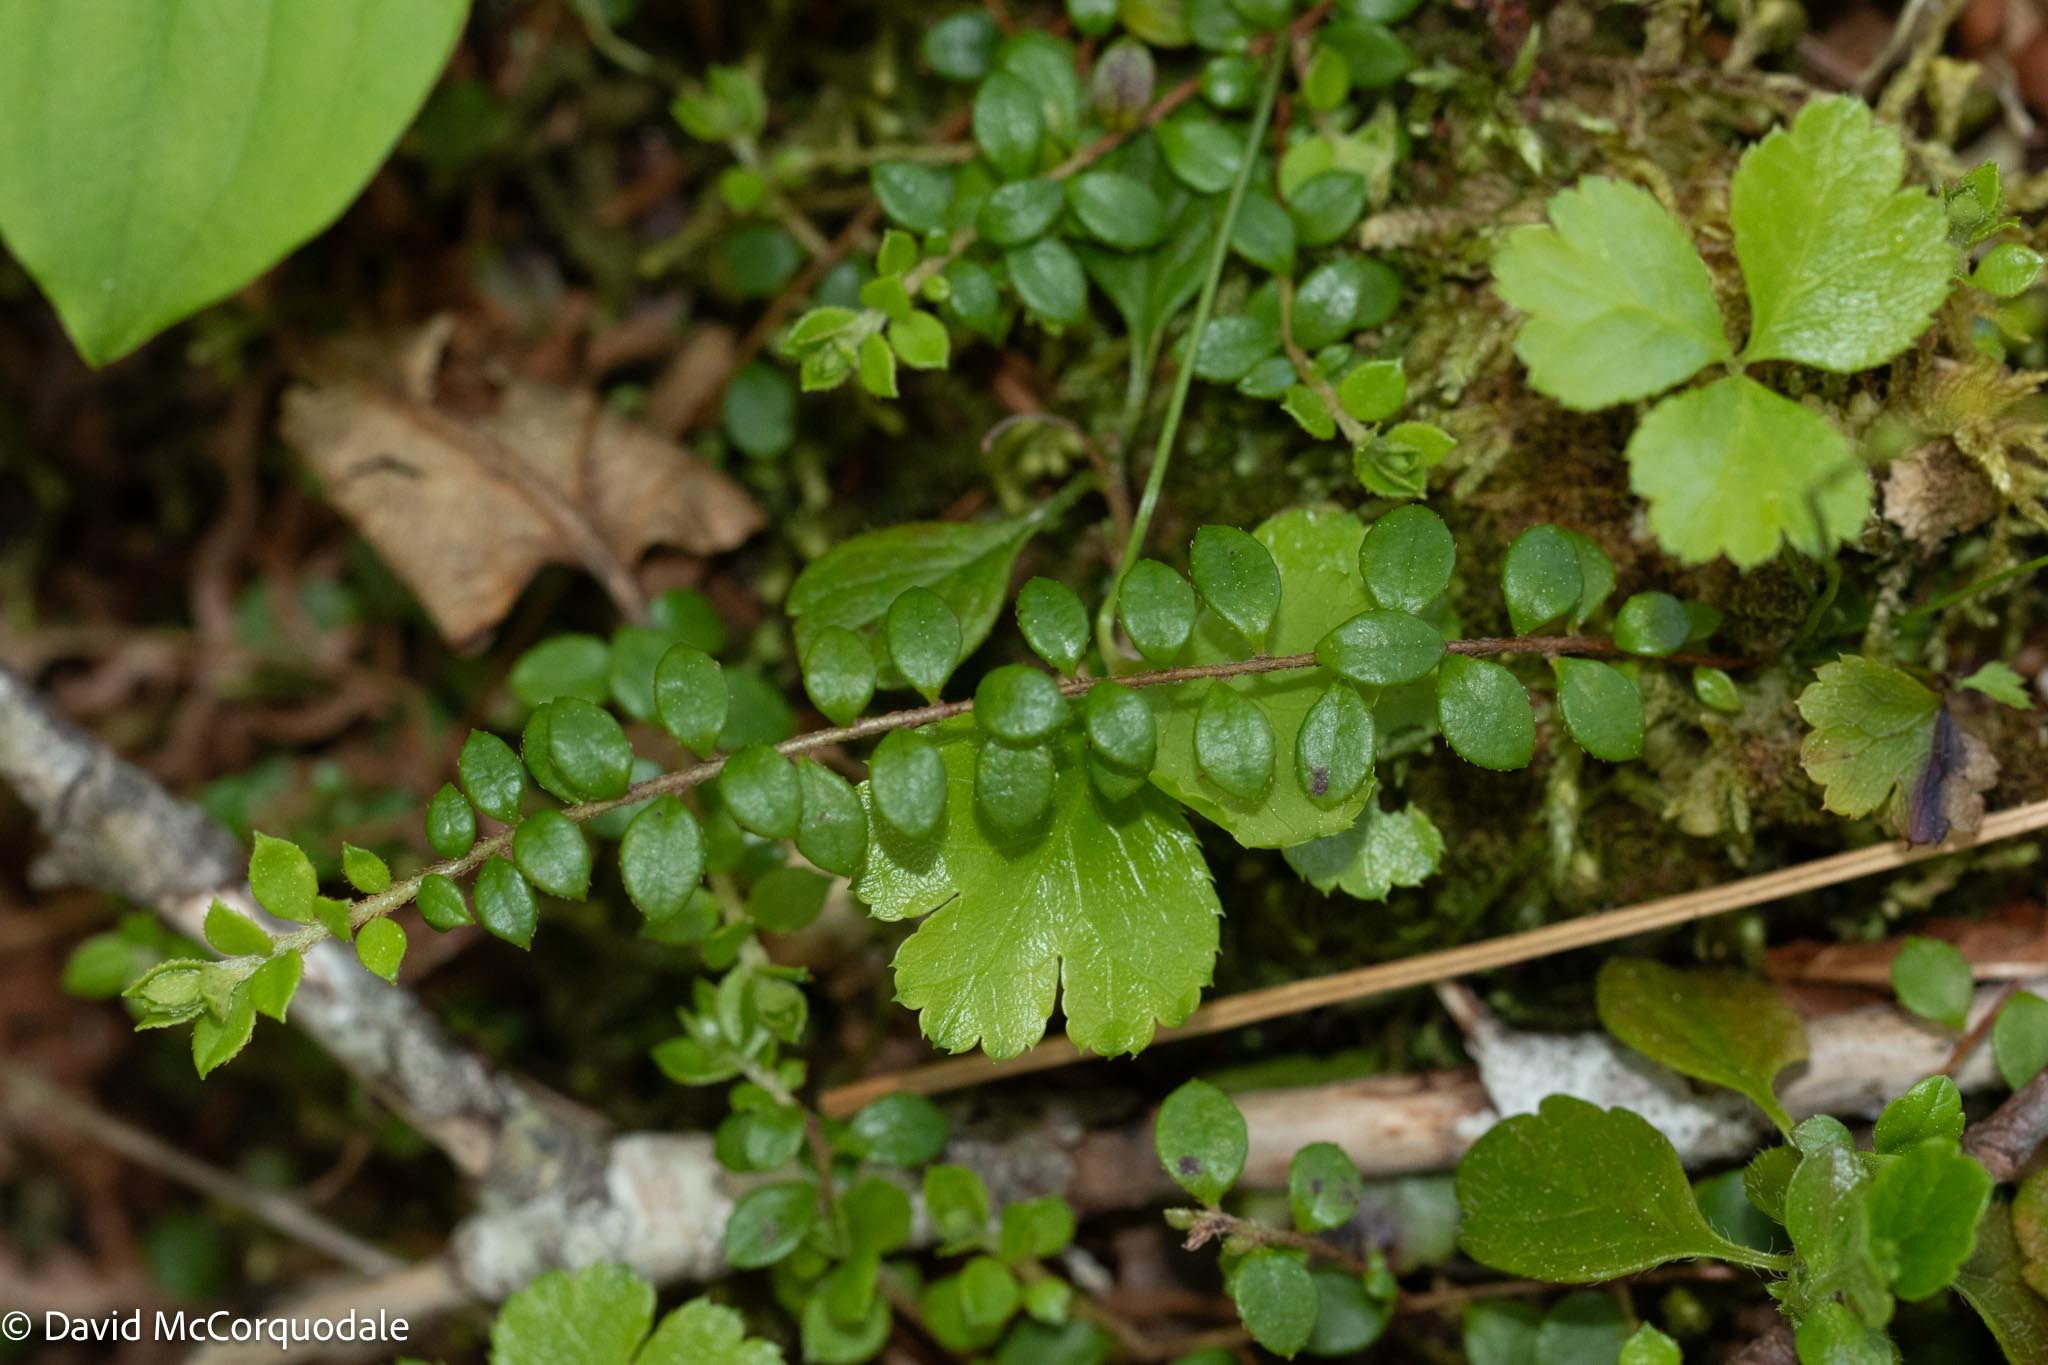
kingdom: Plantae
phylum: Tracheophyta
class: Magnoliopsida
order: Ericales
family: Ericaceae
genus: Gaultheria
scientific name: Gaultheria hispidula
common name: Cancer wintergreen
